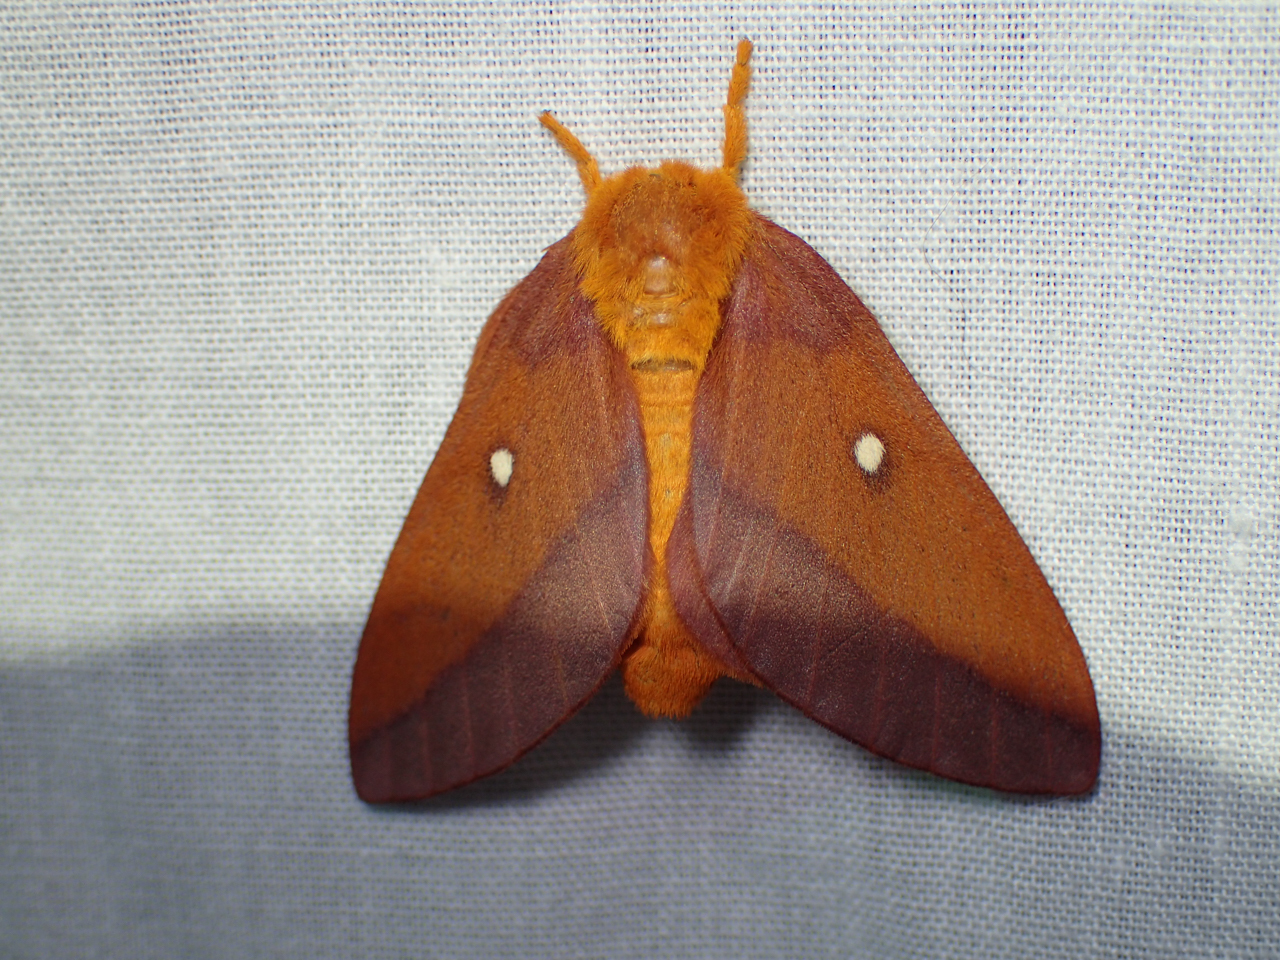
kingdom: Animalia
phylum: Arthropoda
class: Insecta
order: Lepidoptera
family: Saturniidae
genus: Anisota
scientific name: Anisota virginiensis
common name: Pink striped oakworm moth
